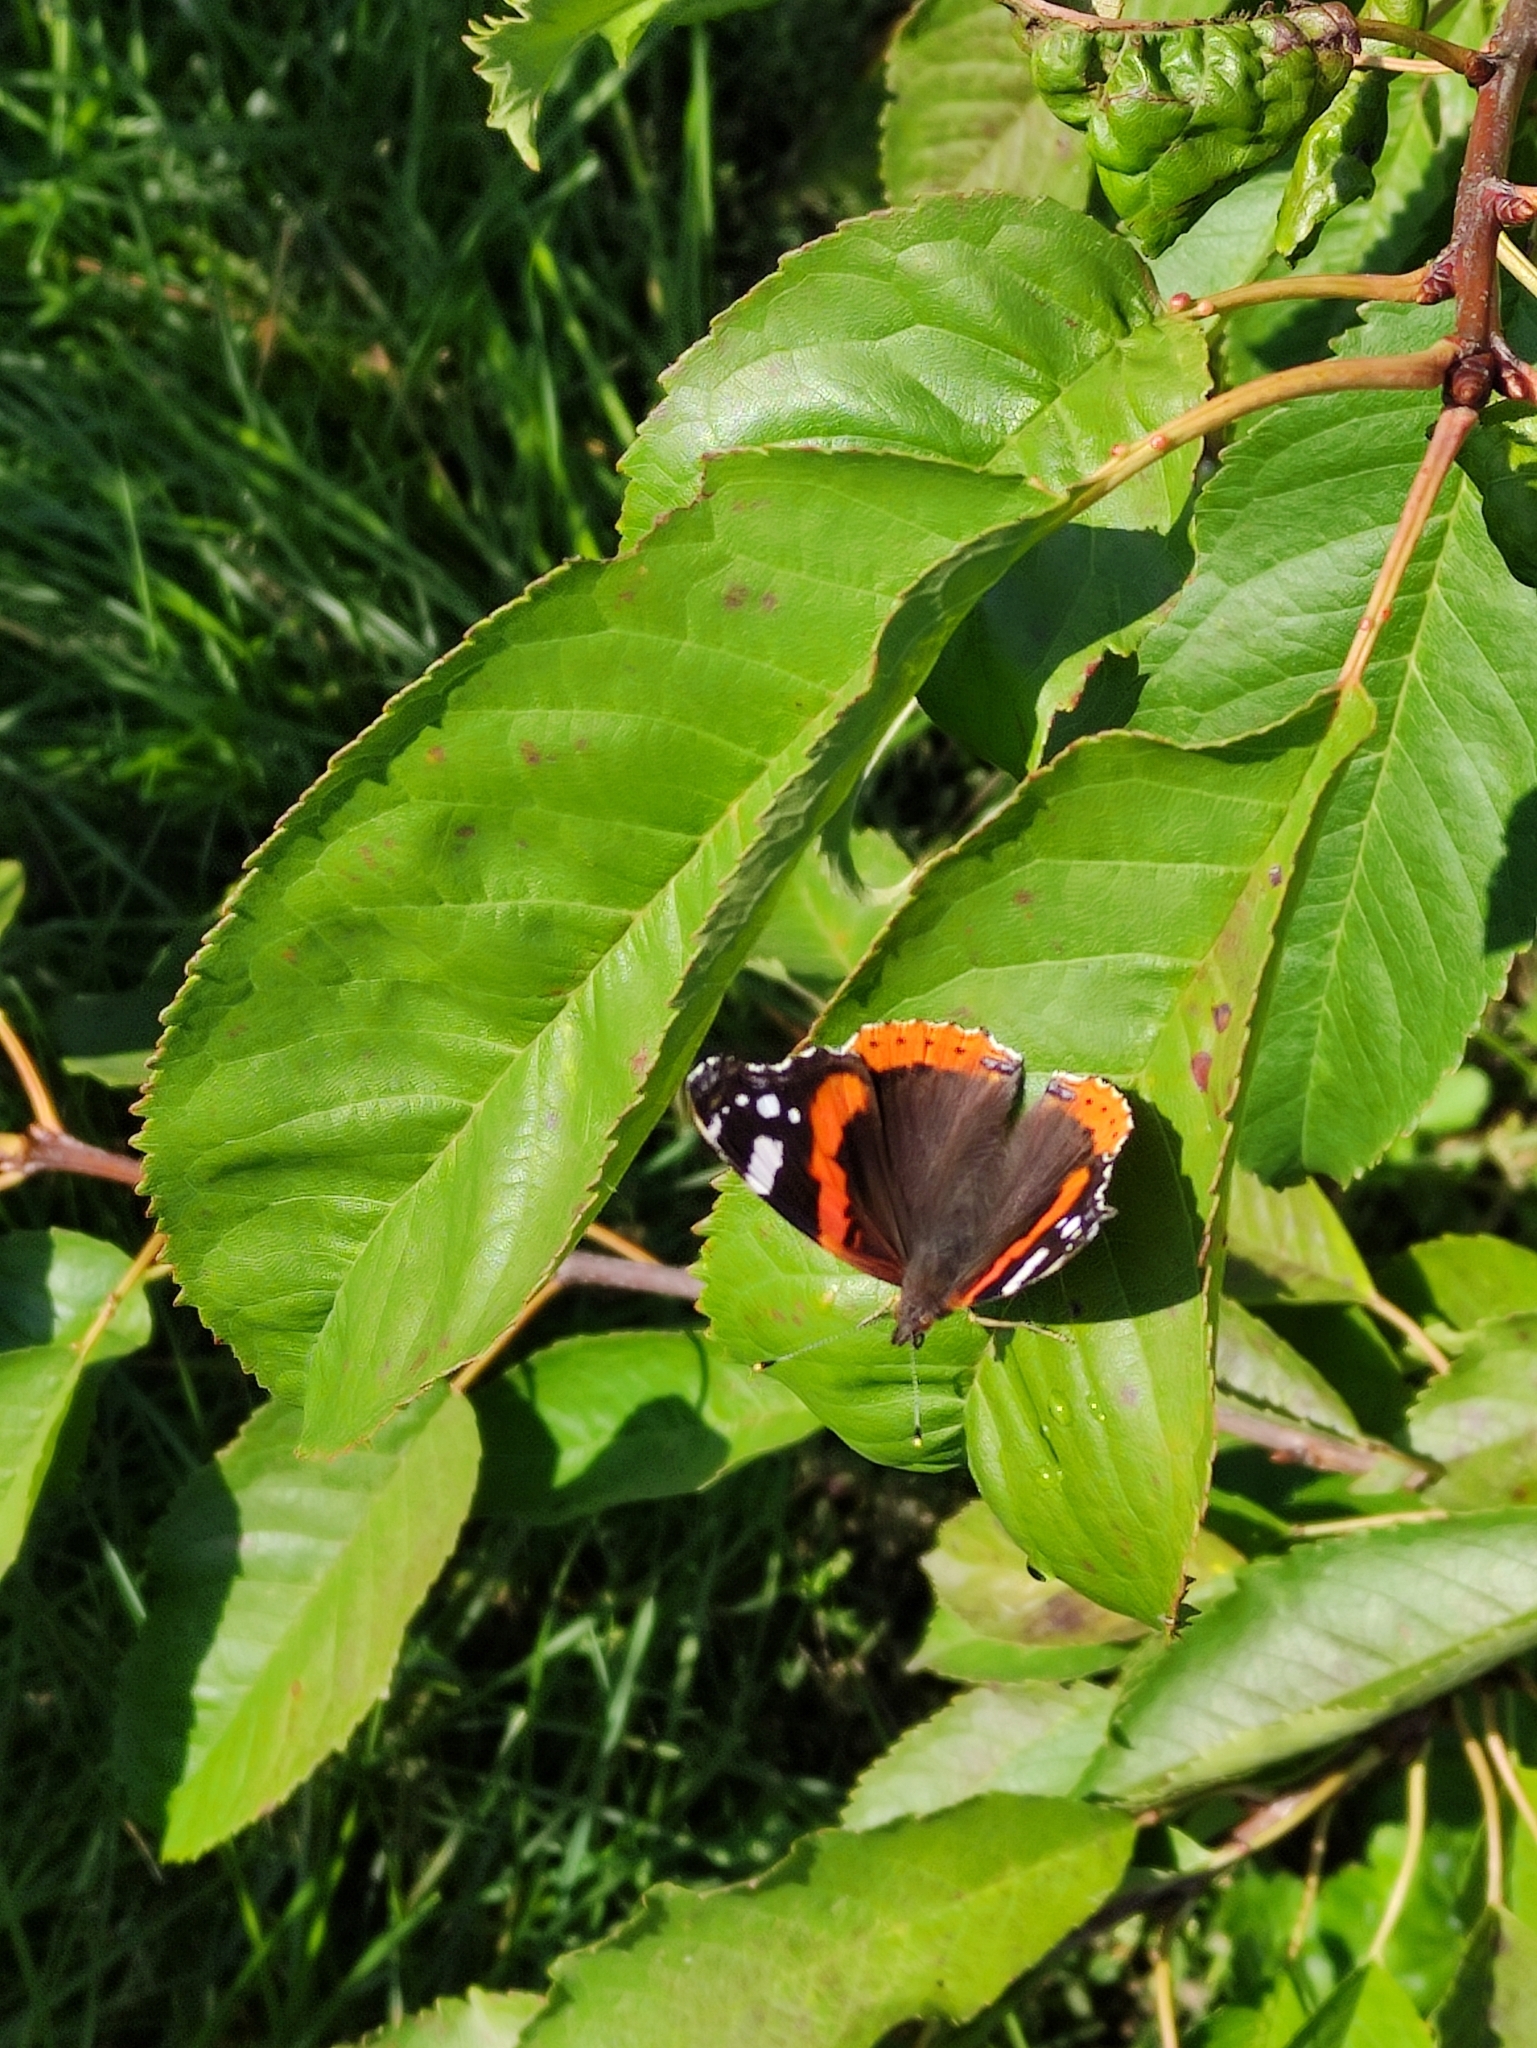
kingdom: Animalia
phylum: Arthropoda
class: Insecta
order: Lepidoptera
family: Nymphalidae
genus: Vanessa
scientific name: Vanessa atalanta
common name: Red admiral
